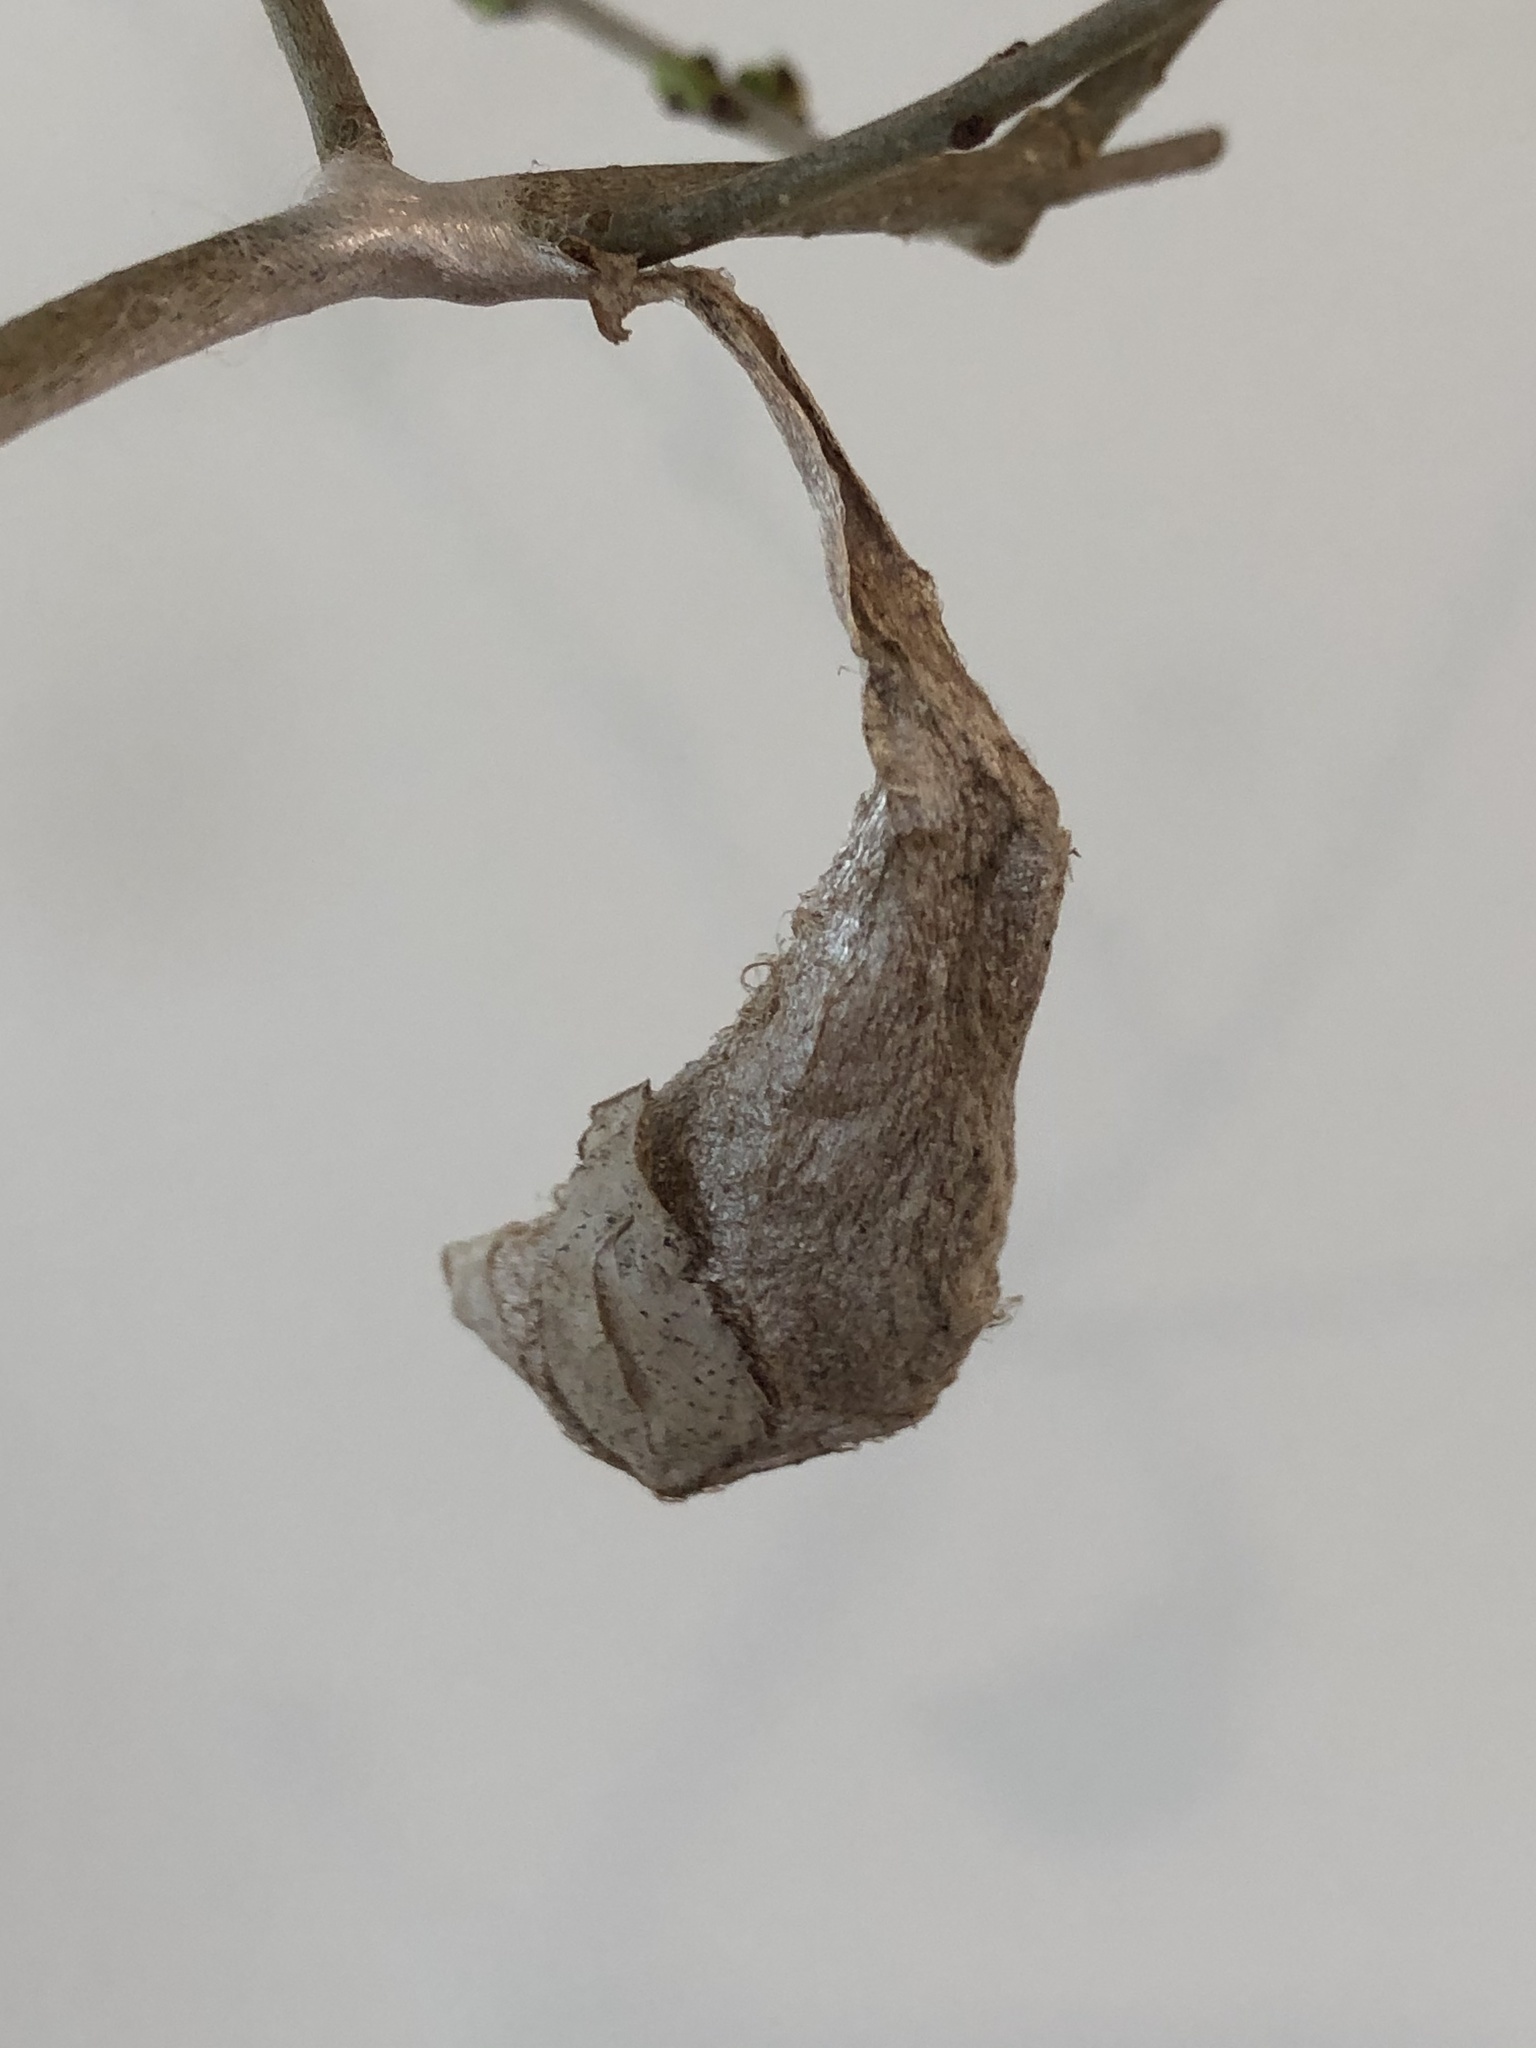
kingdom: Animalia
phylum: Arthropoda
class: Insecta
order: Lepidoptera
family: Saturniidae
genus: Callosamia
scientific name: Callosamia promethea
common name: Promethea silkmoth
